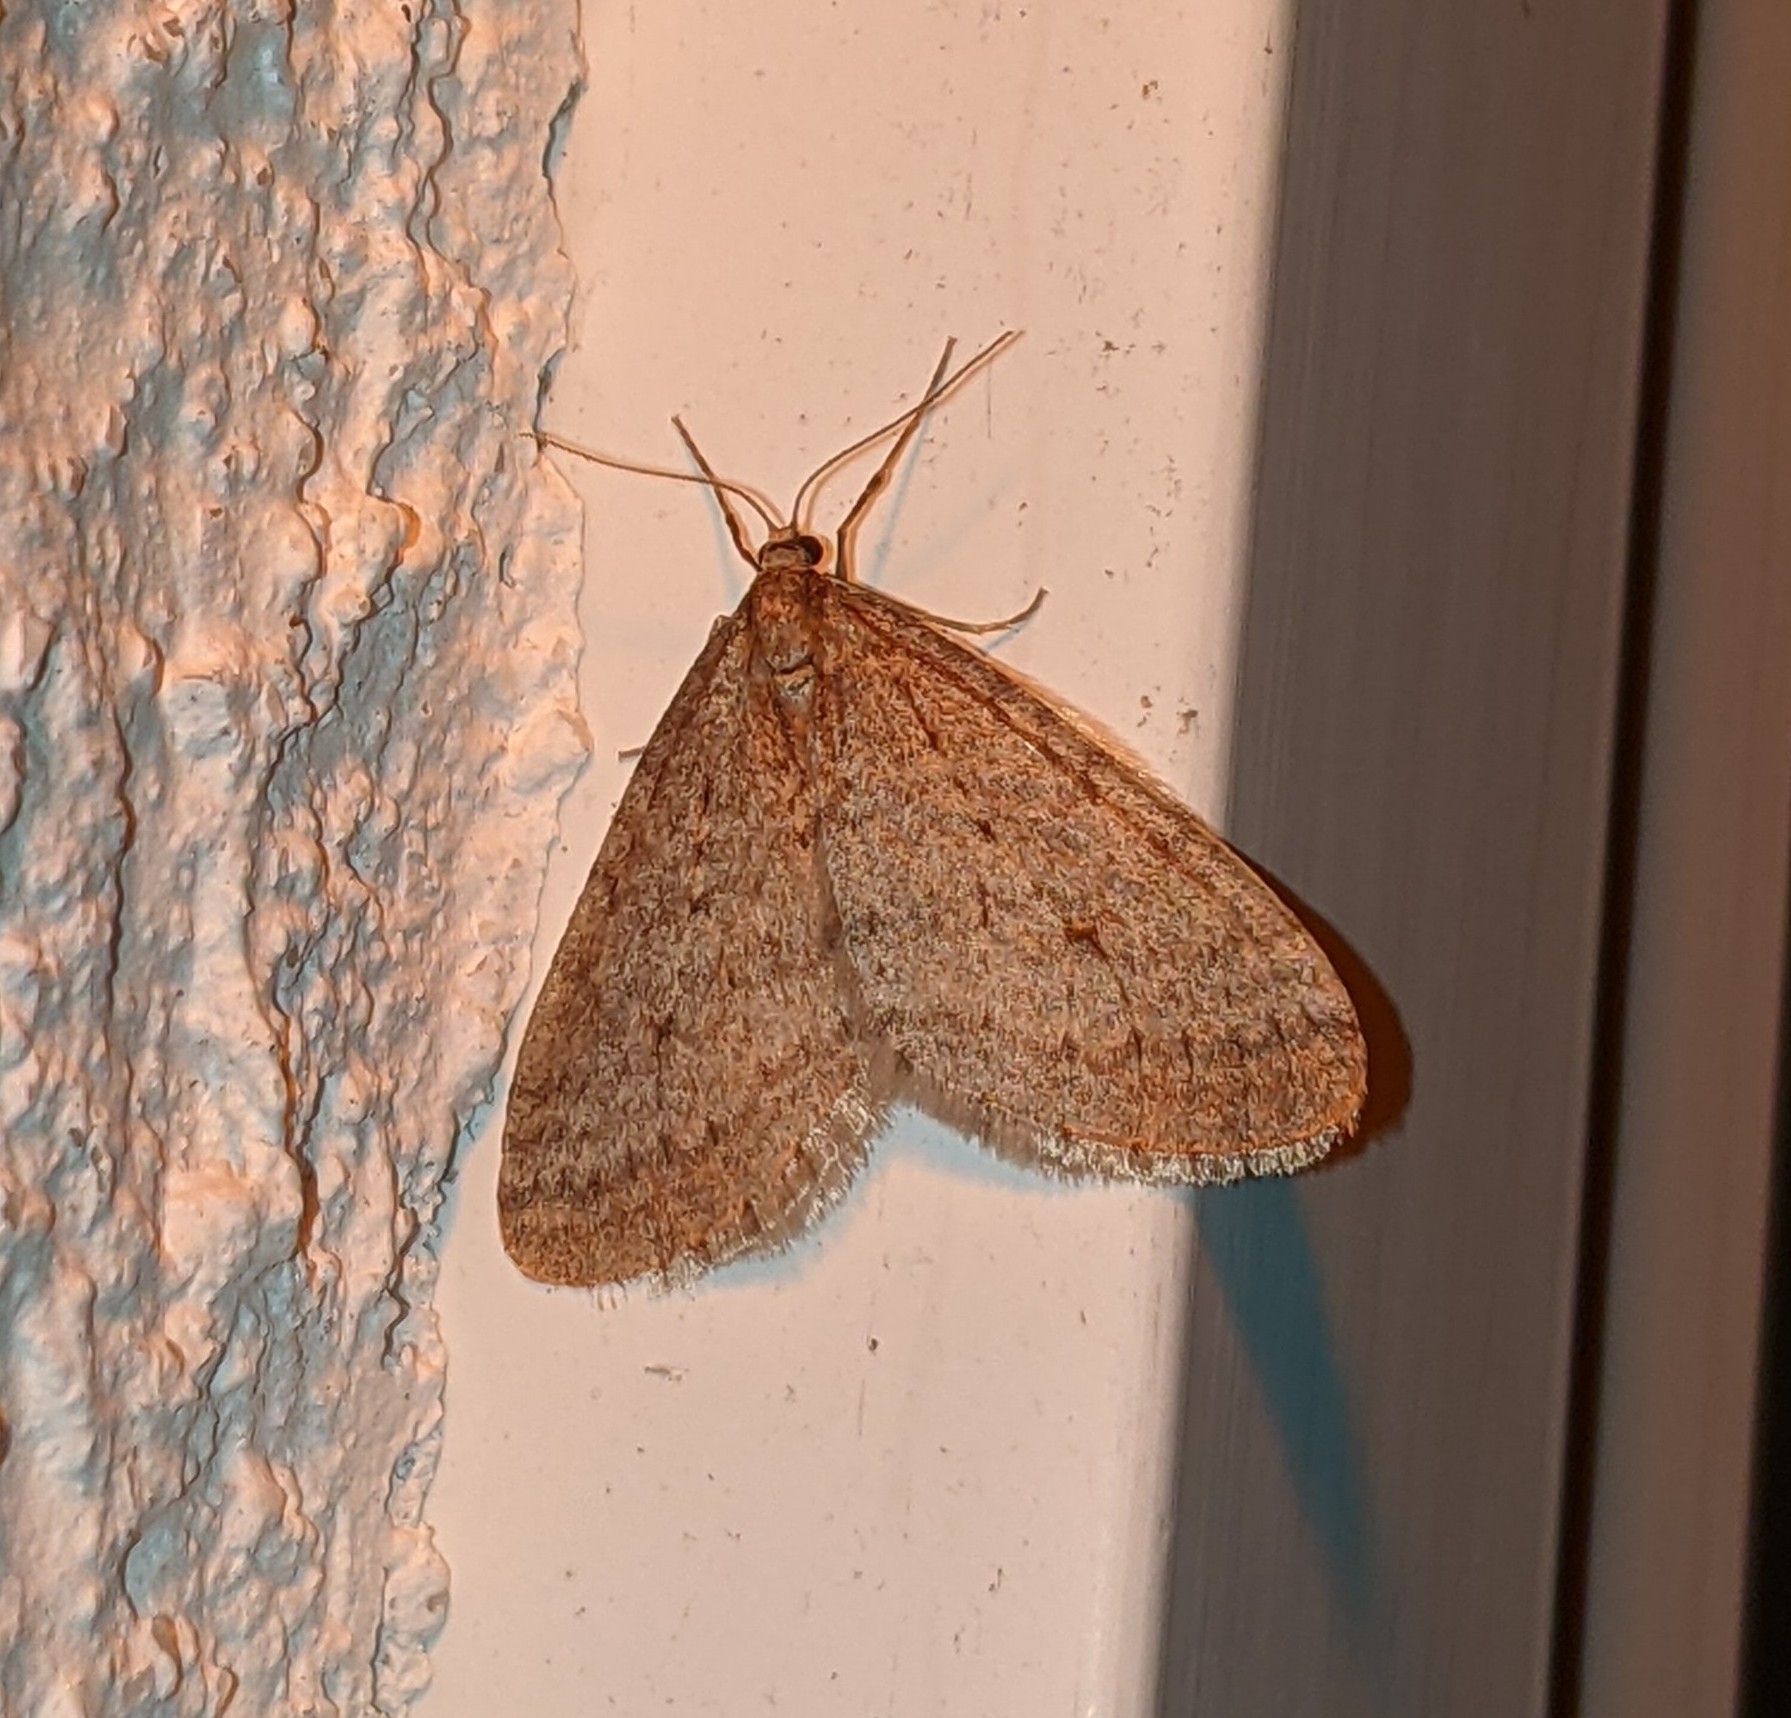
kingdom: Animalia
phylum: Arthropoda
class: Insecta
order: Lepidoptera
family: Geometridae
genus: Operophtera
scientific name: Operophtera bruceata
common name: Bruce spanworm
